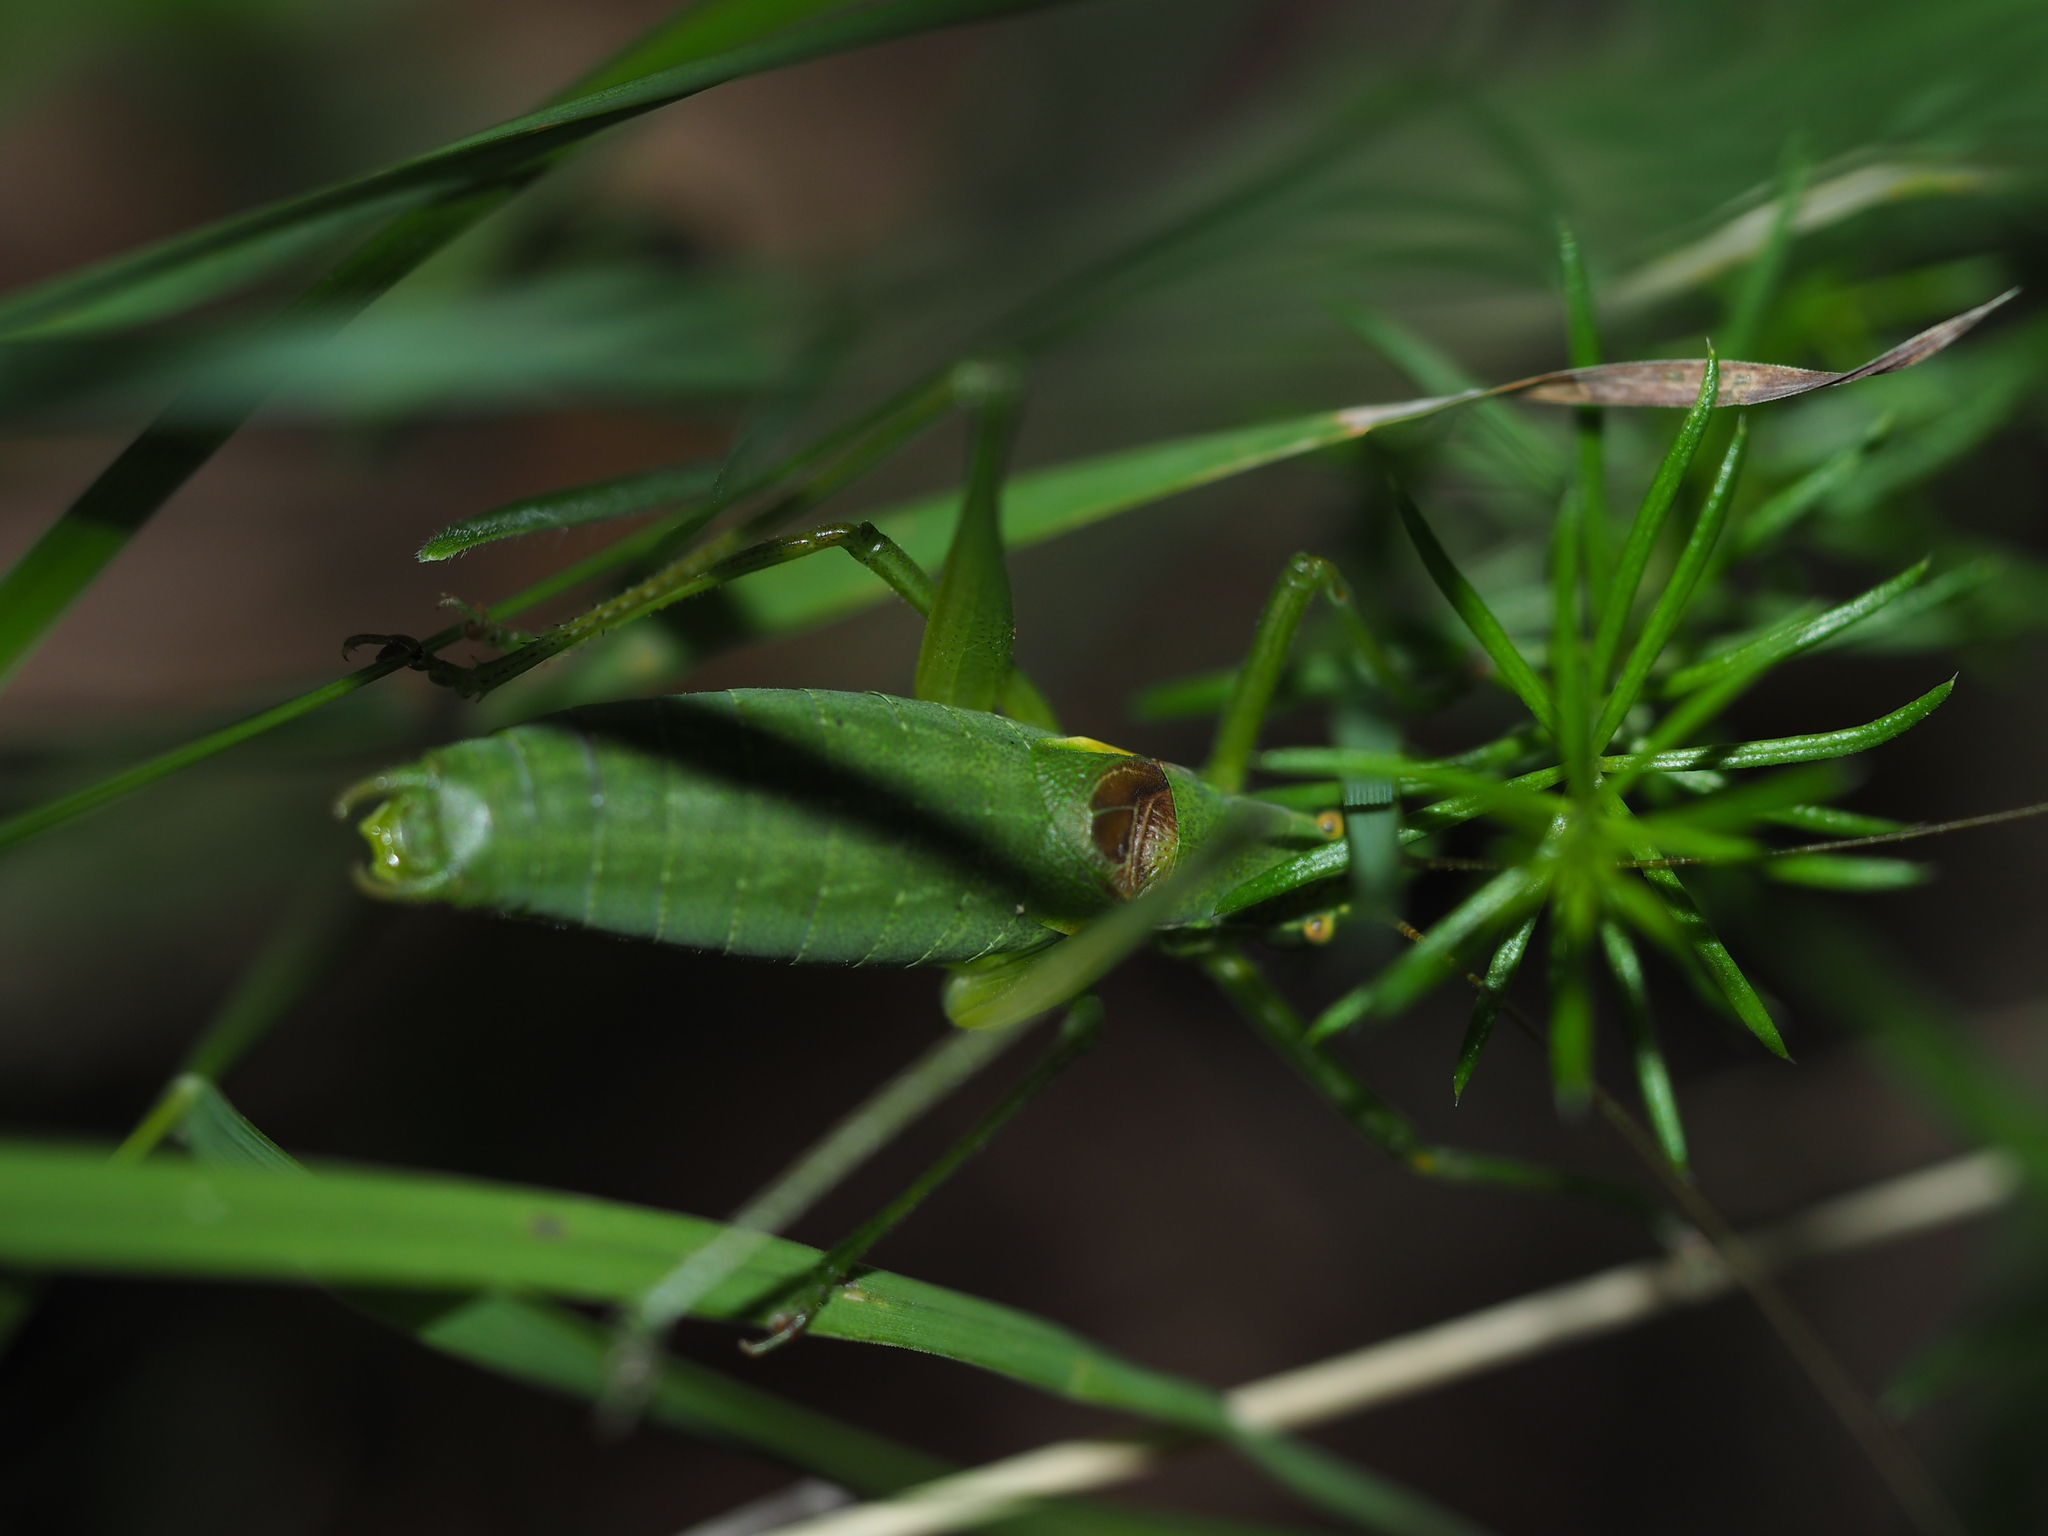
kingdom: Animalia
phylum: Arthropoda
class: Insecta
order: Orthoptera
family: Tettigoniidae
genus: Isophya
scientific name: Isophya camptoxypha
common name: Curve-tailed plump bush-cricket
